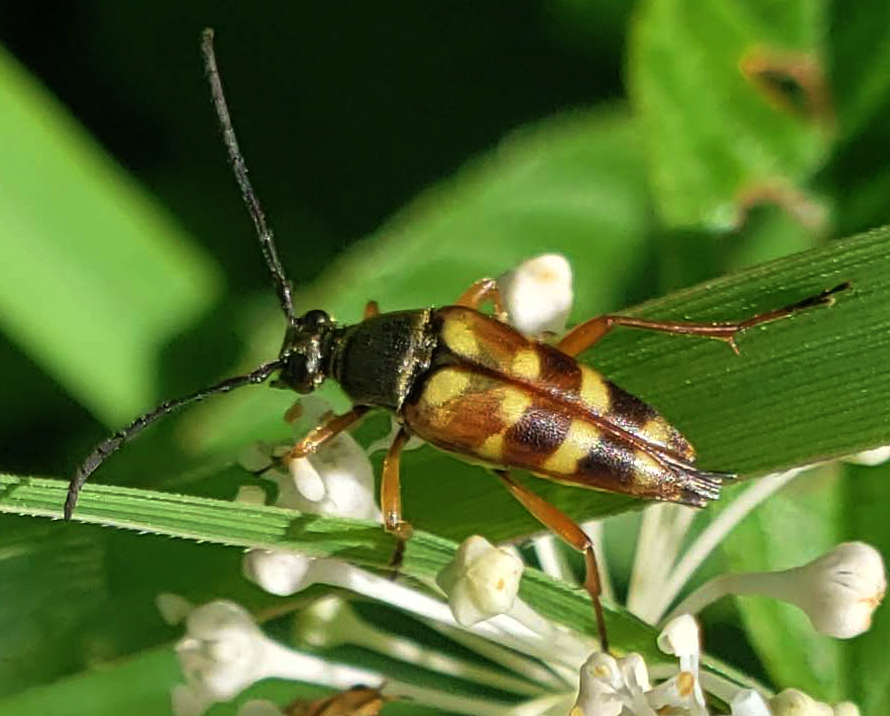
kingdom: Animalia
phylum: Arthropoda
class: Insecta
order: Coleoptera
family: Cerambycidae
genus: Typocerus
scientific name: Typocerus velutinus
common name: Banded longhorn beetle
